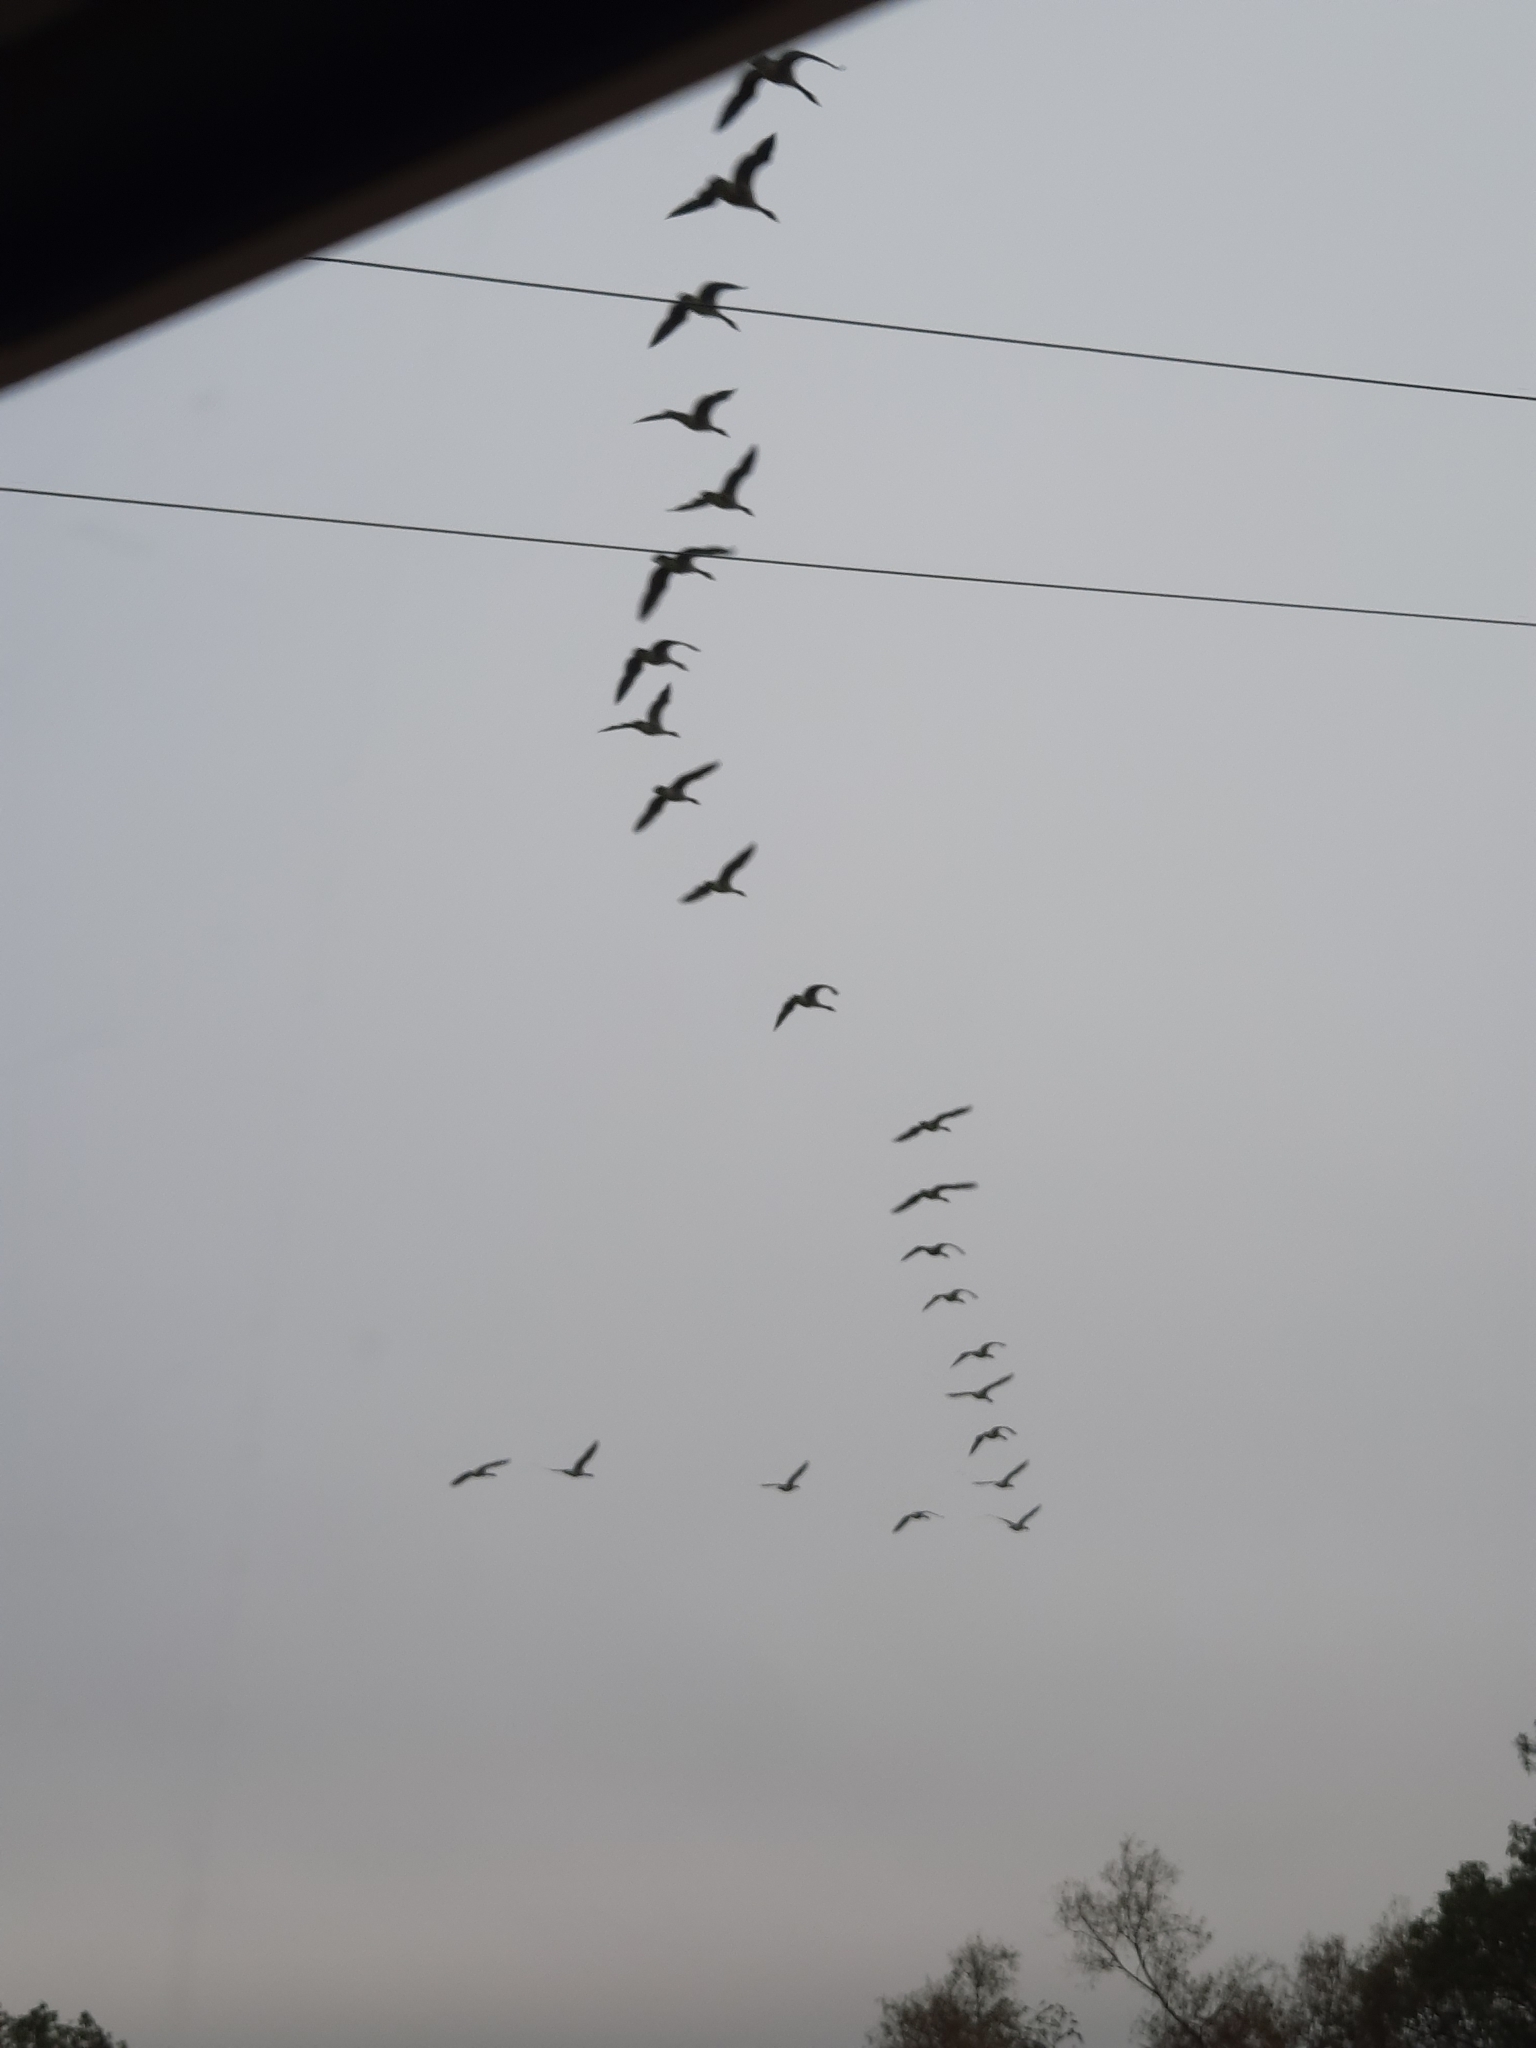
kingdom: Animalia
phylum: Chordata
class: Aves
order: Anseriformes
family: Anatidae
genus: Branta
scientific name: Branta canadensis
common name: Canada goose
